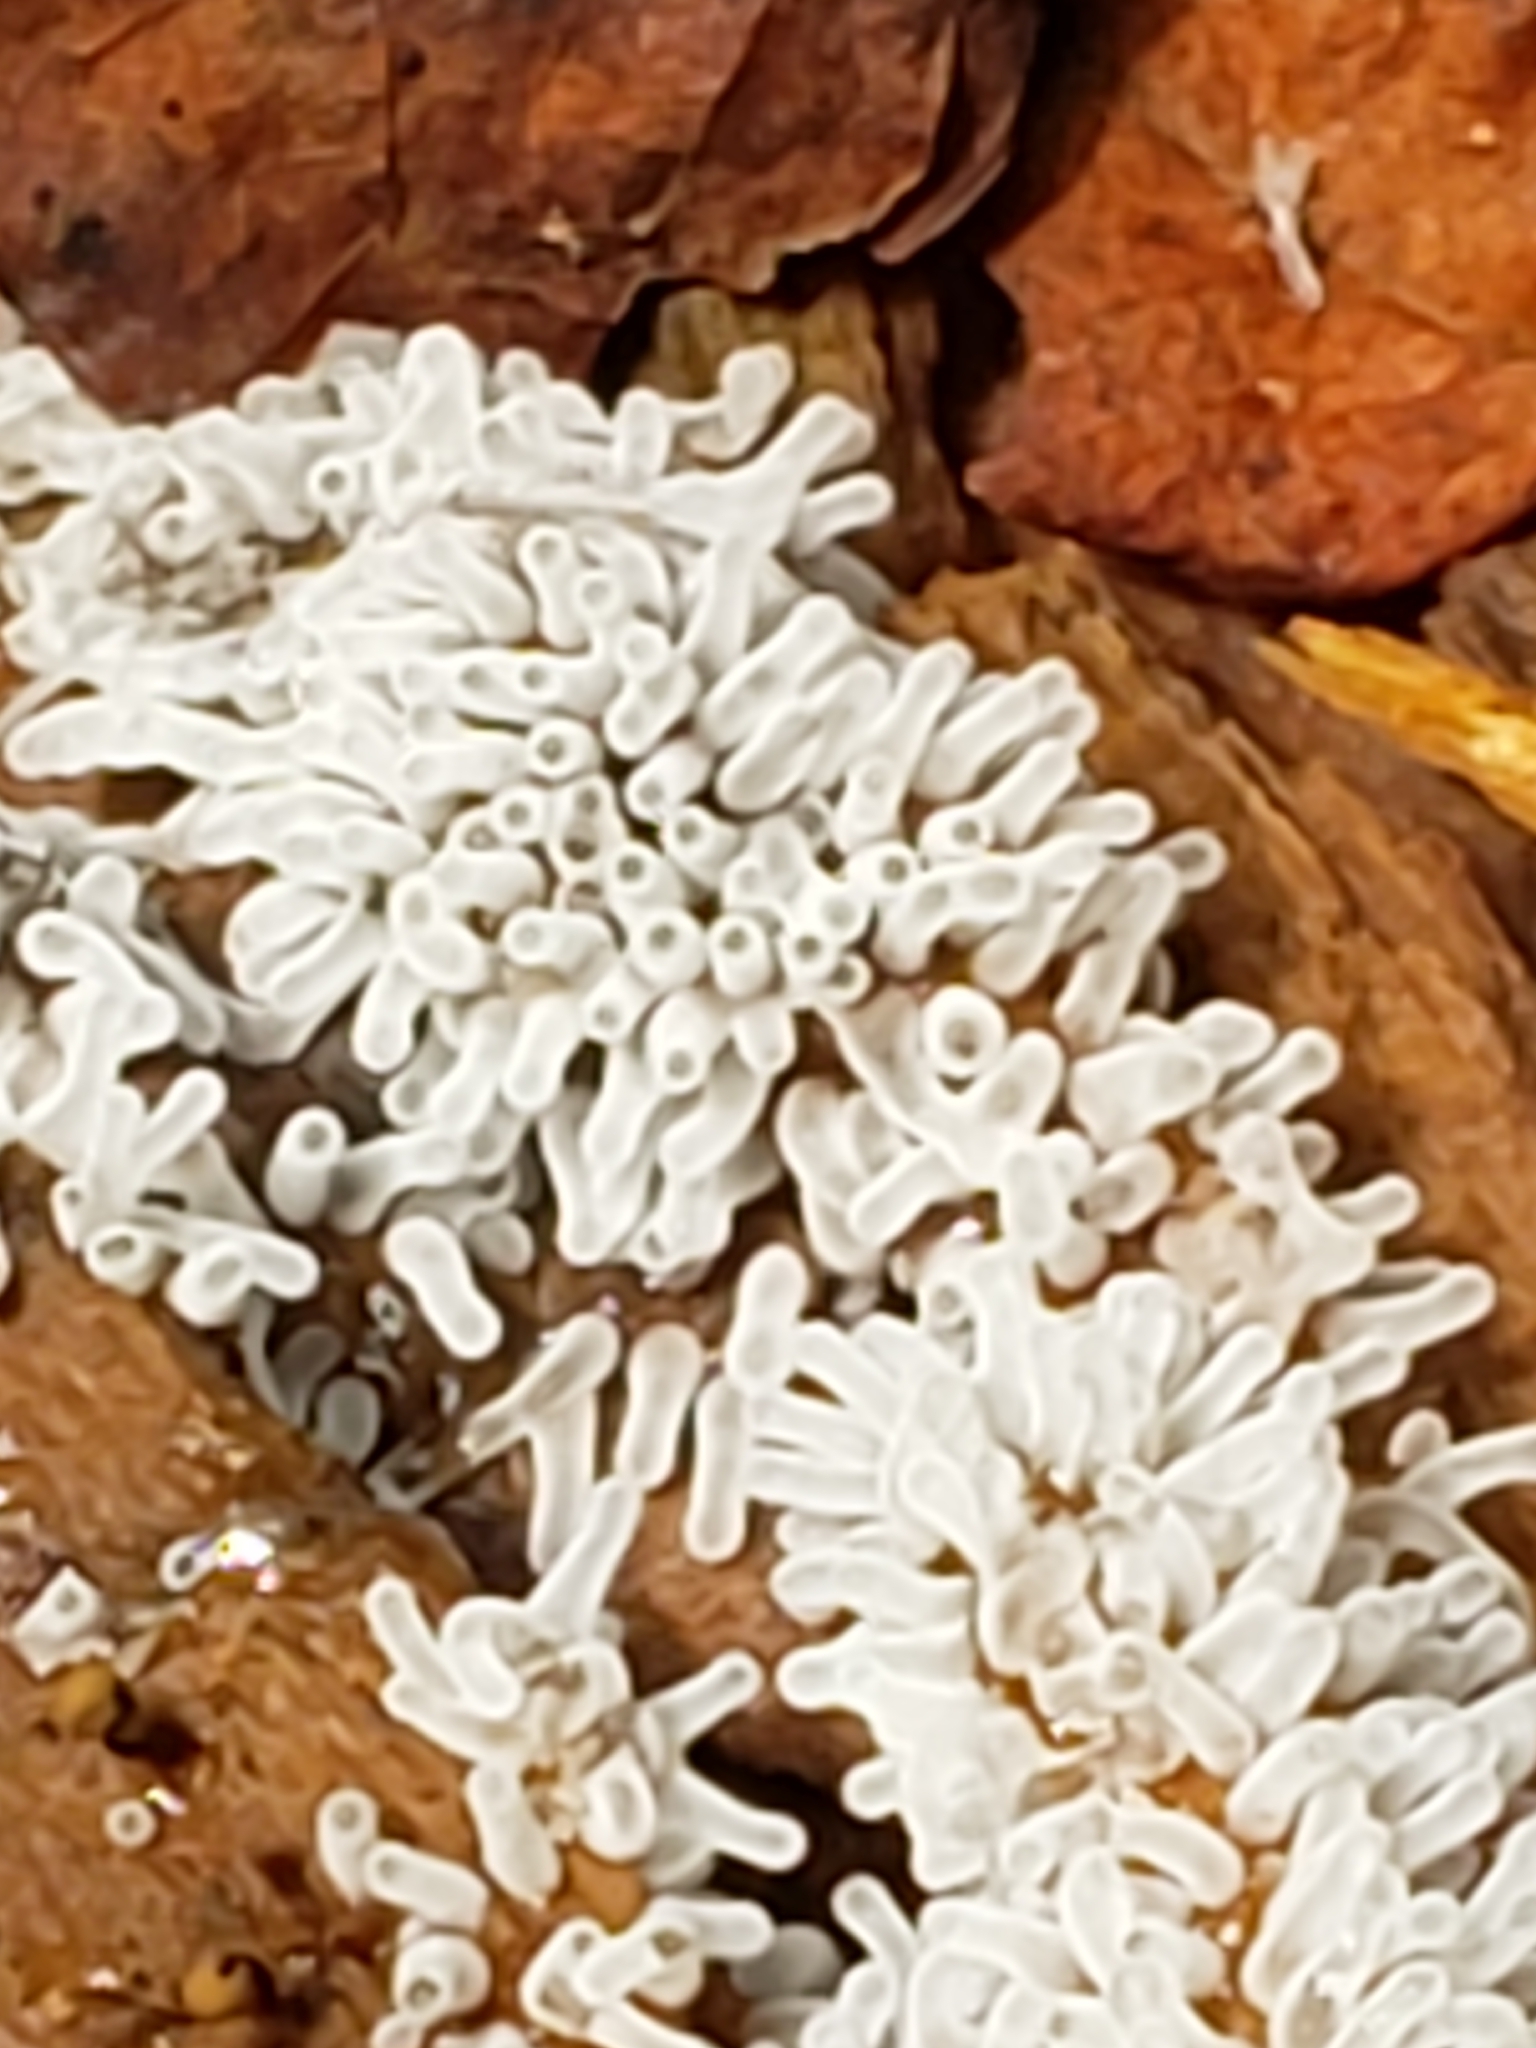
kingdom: Protozoa
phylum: Mycetozoa
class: Protosteliomycetes
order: Ceratiomyxales
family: Ceratiomyxaceae
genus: Ceratiomyxa
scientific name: Ceratiomyxa fruticulosa
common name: Honeycomb coral slime mold
